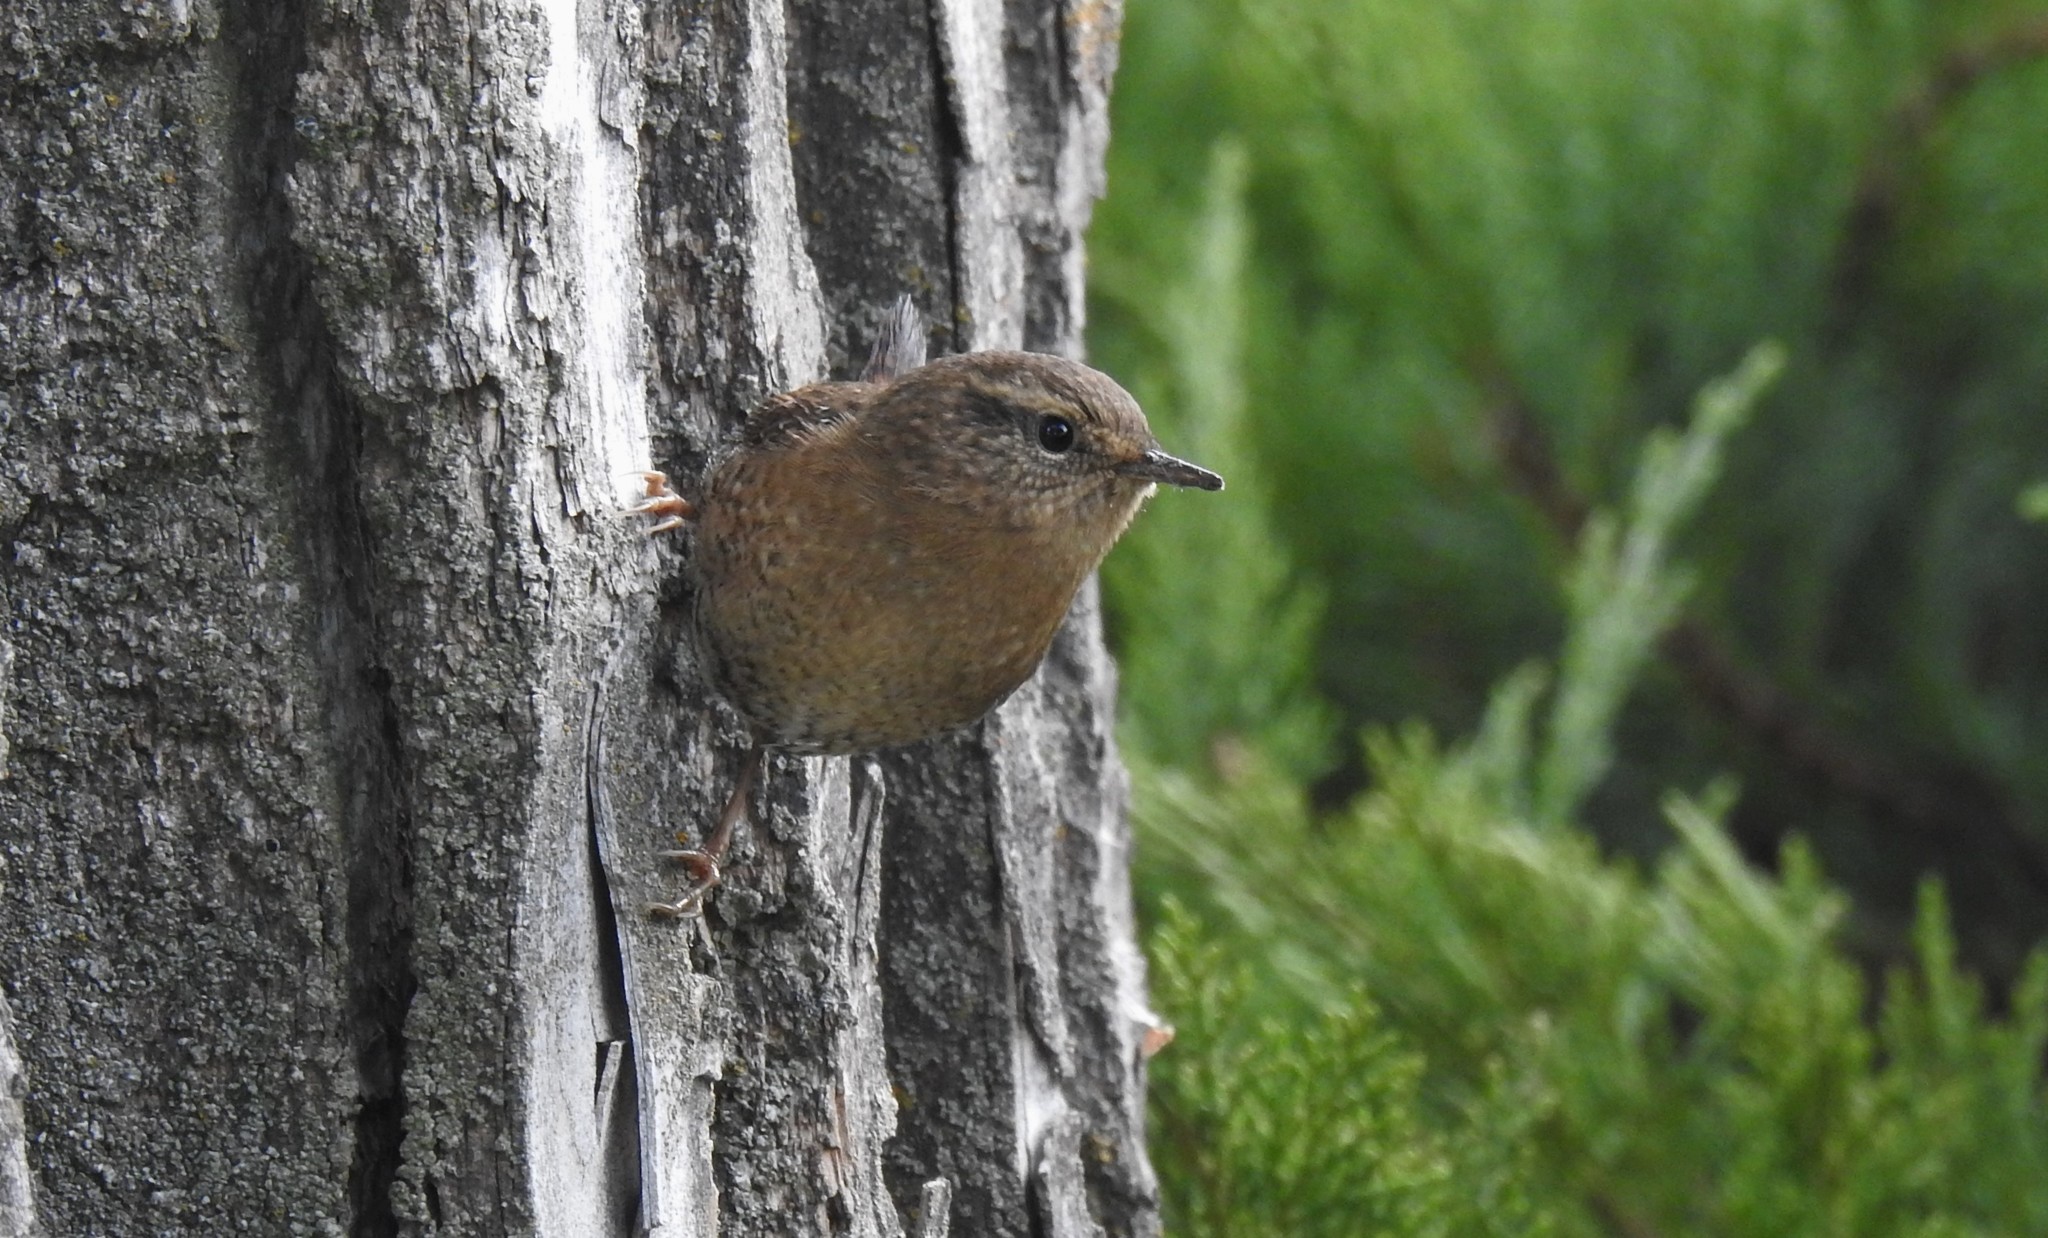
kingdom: Animalia
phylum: Chordata
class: Aves
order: Passeriformes
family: Troglodytidae
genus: Troglodytes
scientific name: Troglodytes pacificus
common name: Pacific wren
